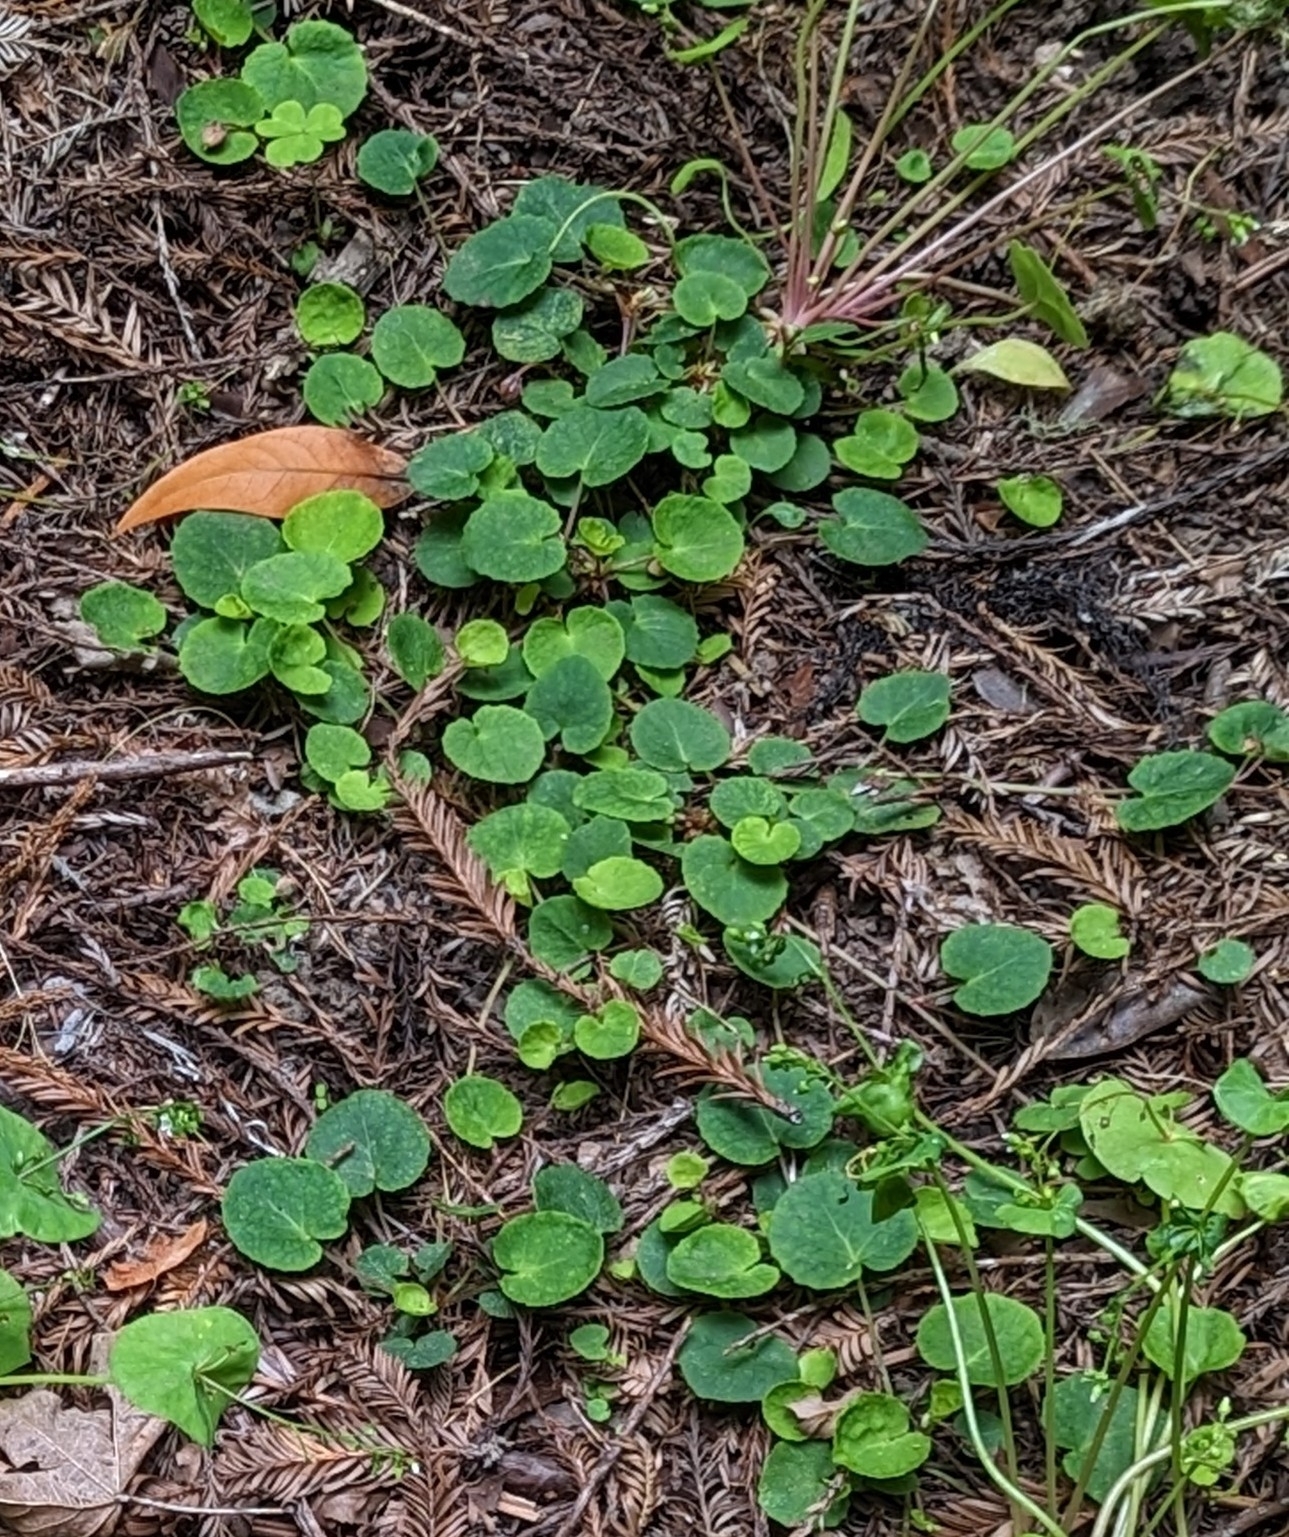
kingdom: Plantae
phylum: Tracheophyta
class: Magnoliopsida
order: Malpighiales
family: Violaceae
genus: Viola
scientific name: Viola sempervirens
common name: Evergreen violet
